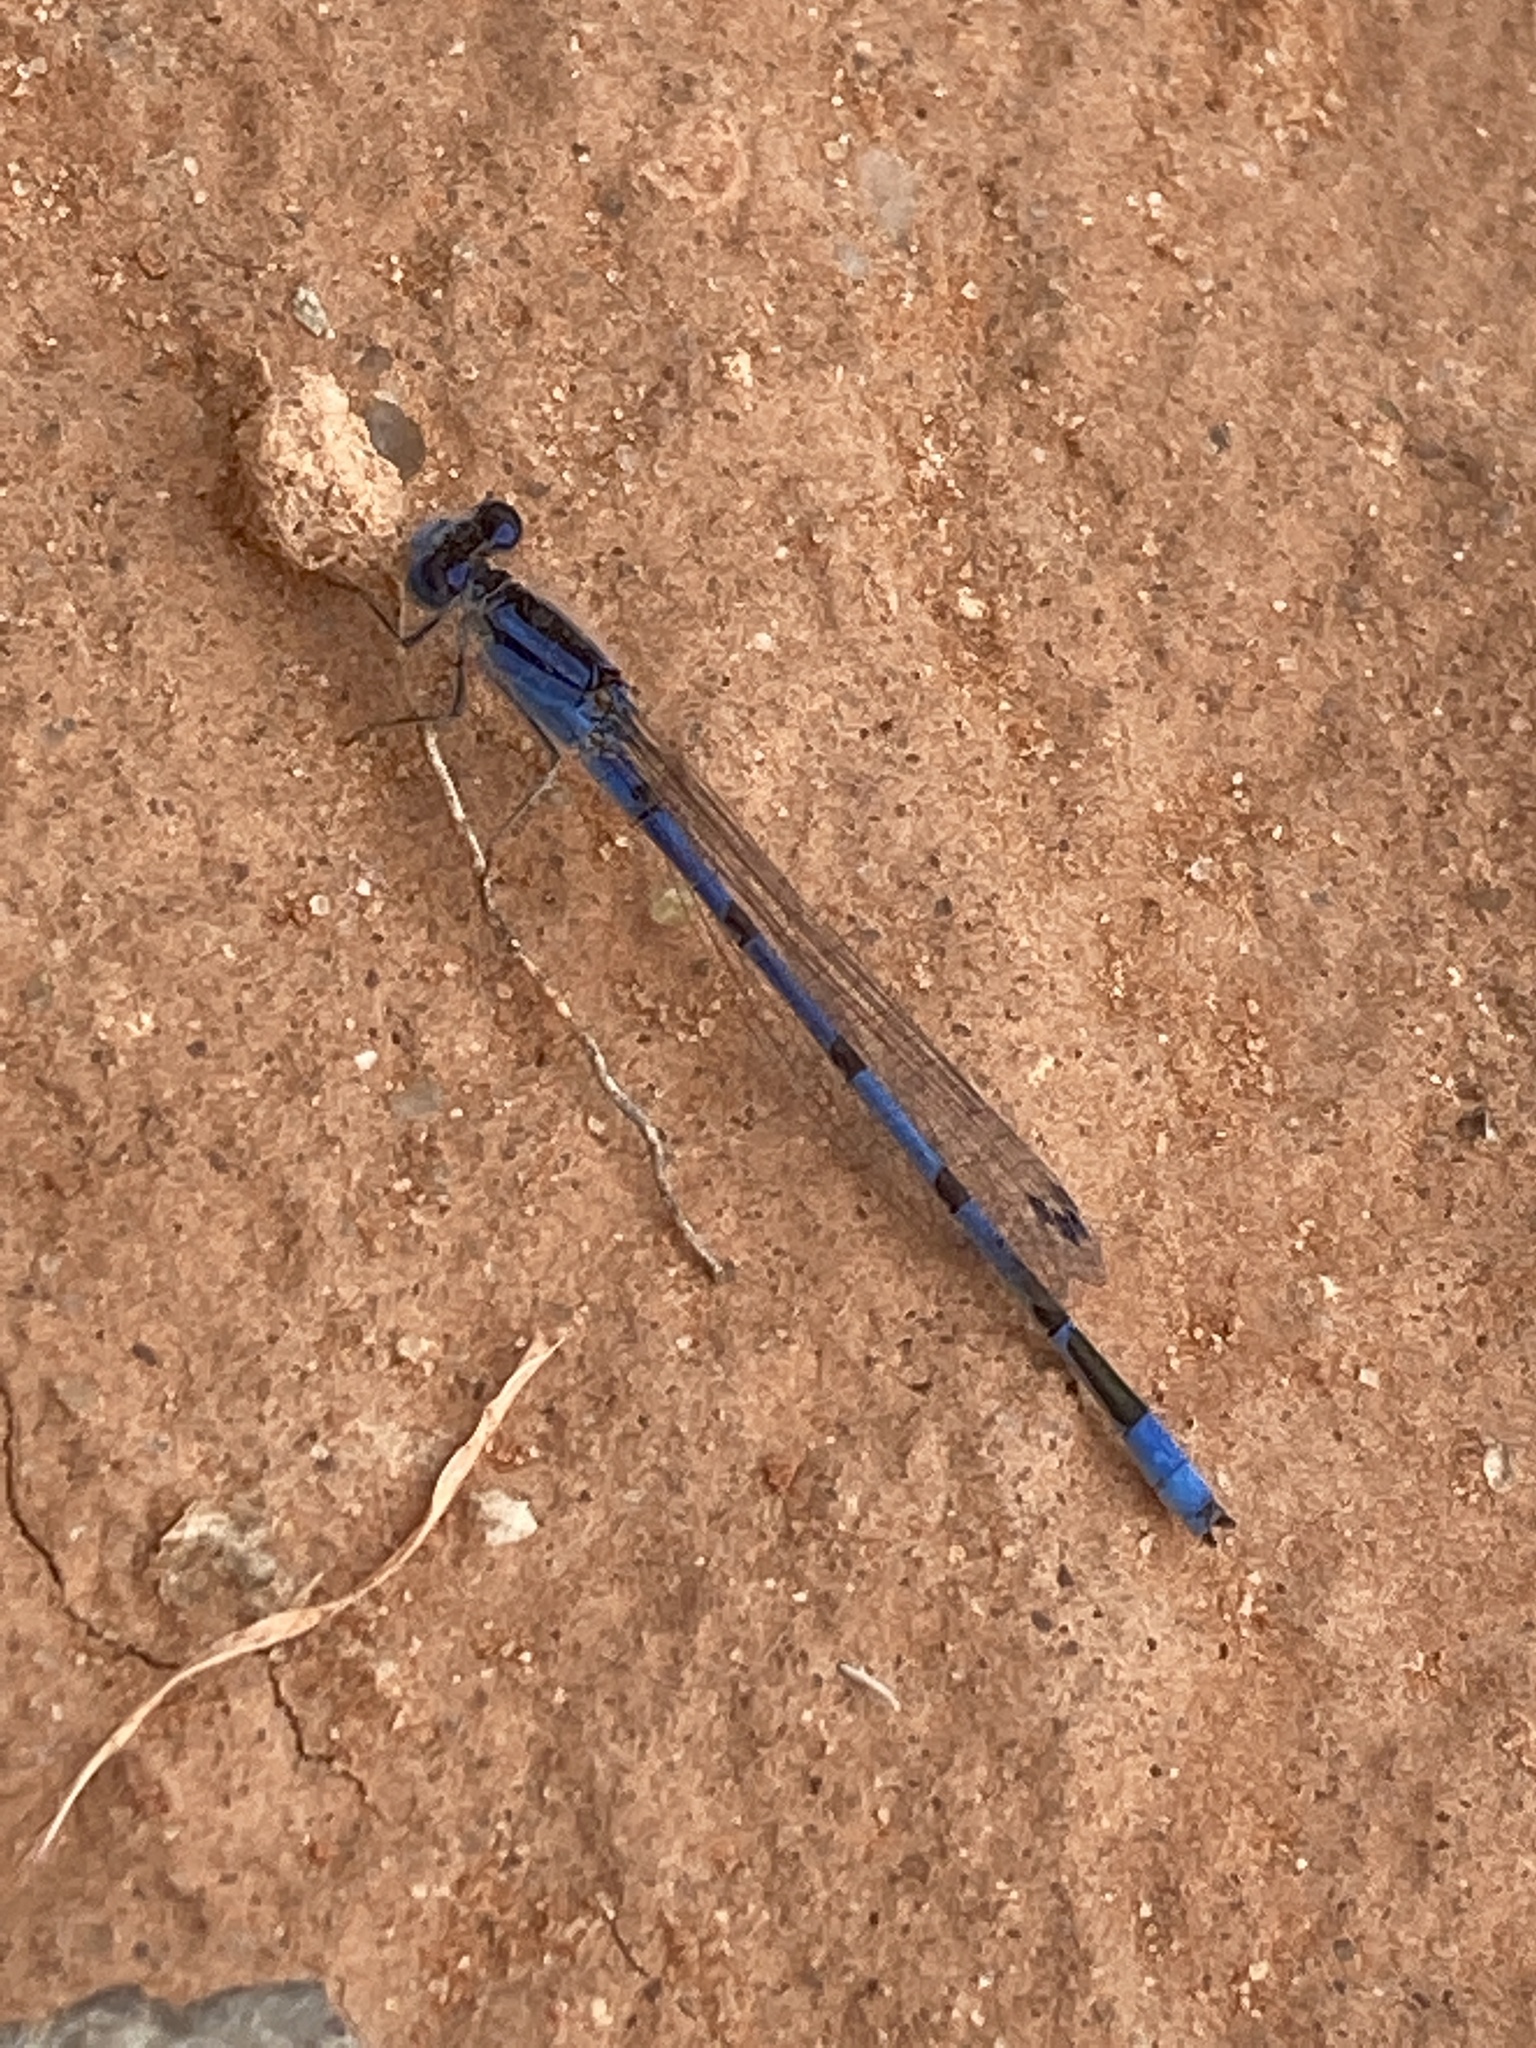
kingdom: Animalia
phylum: Arthropoda
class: Insecta
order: Odonata
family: Coenagrionidae
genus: Enallagma
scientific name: Enallagma civile
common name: Damselfly
